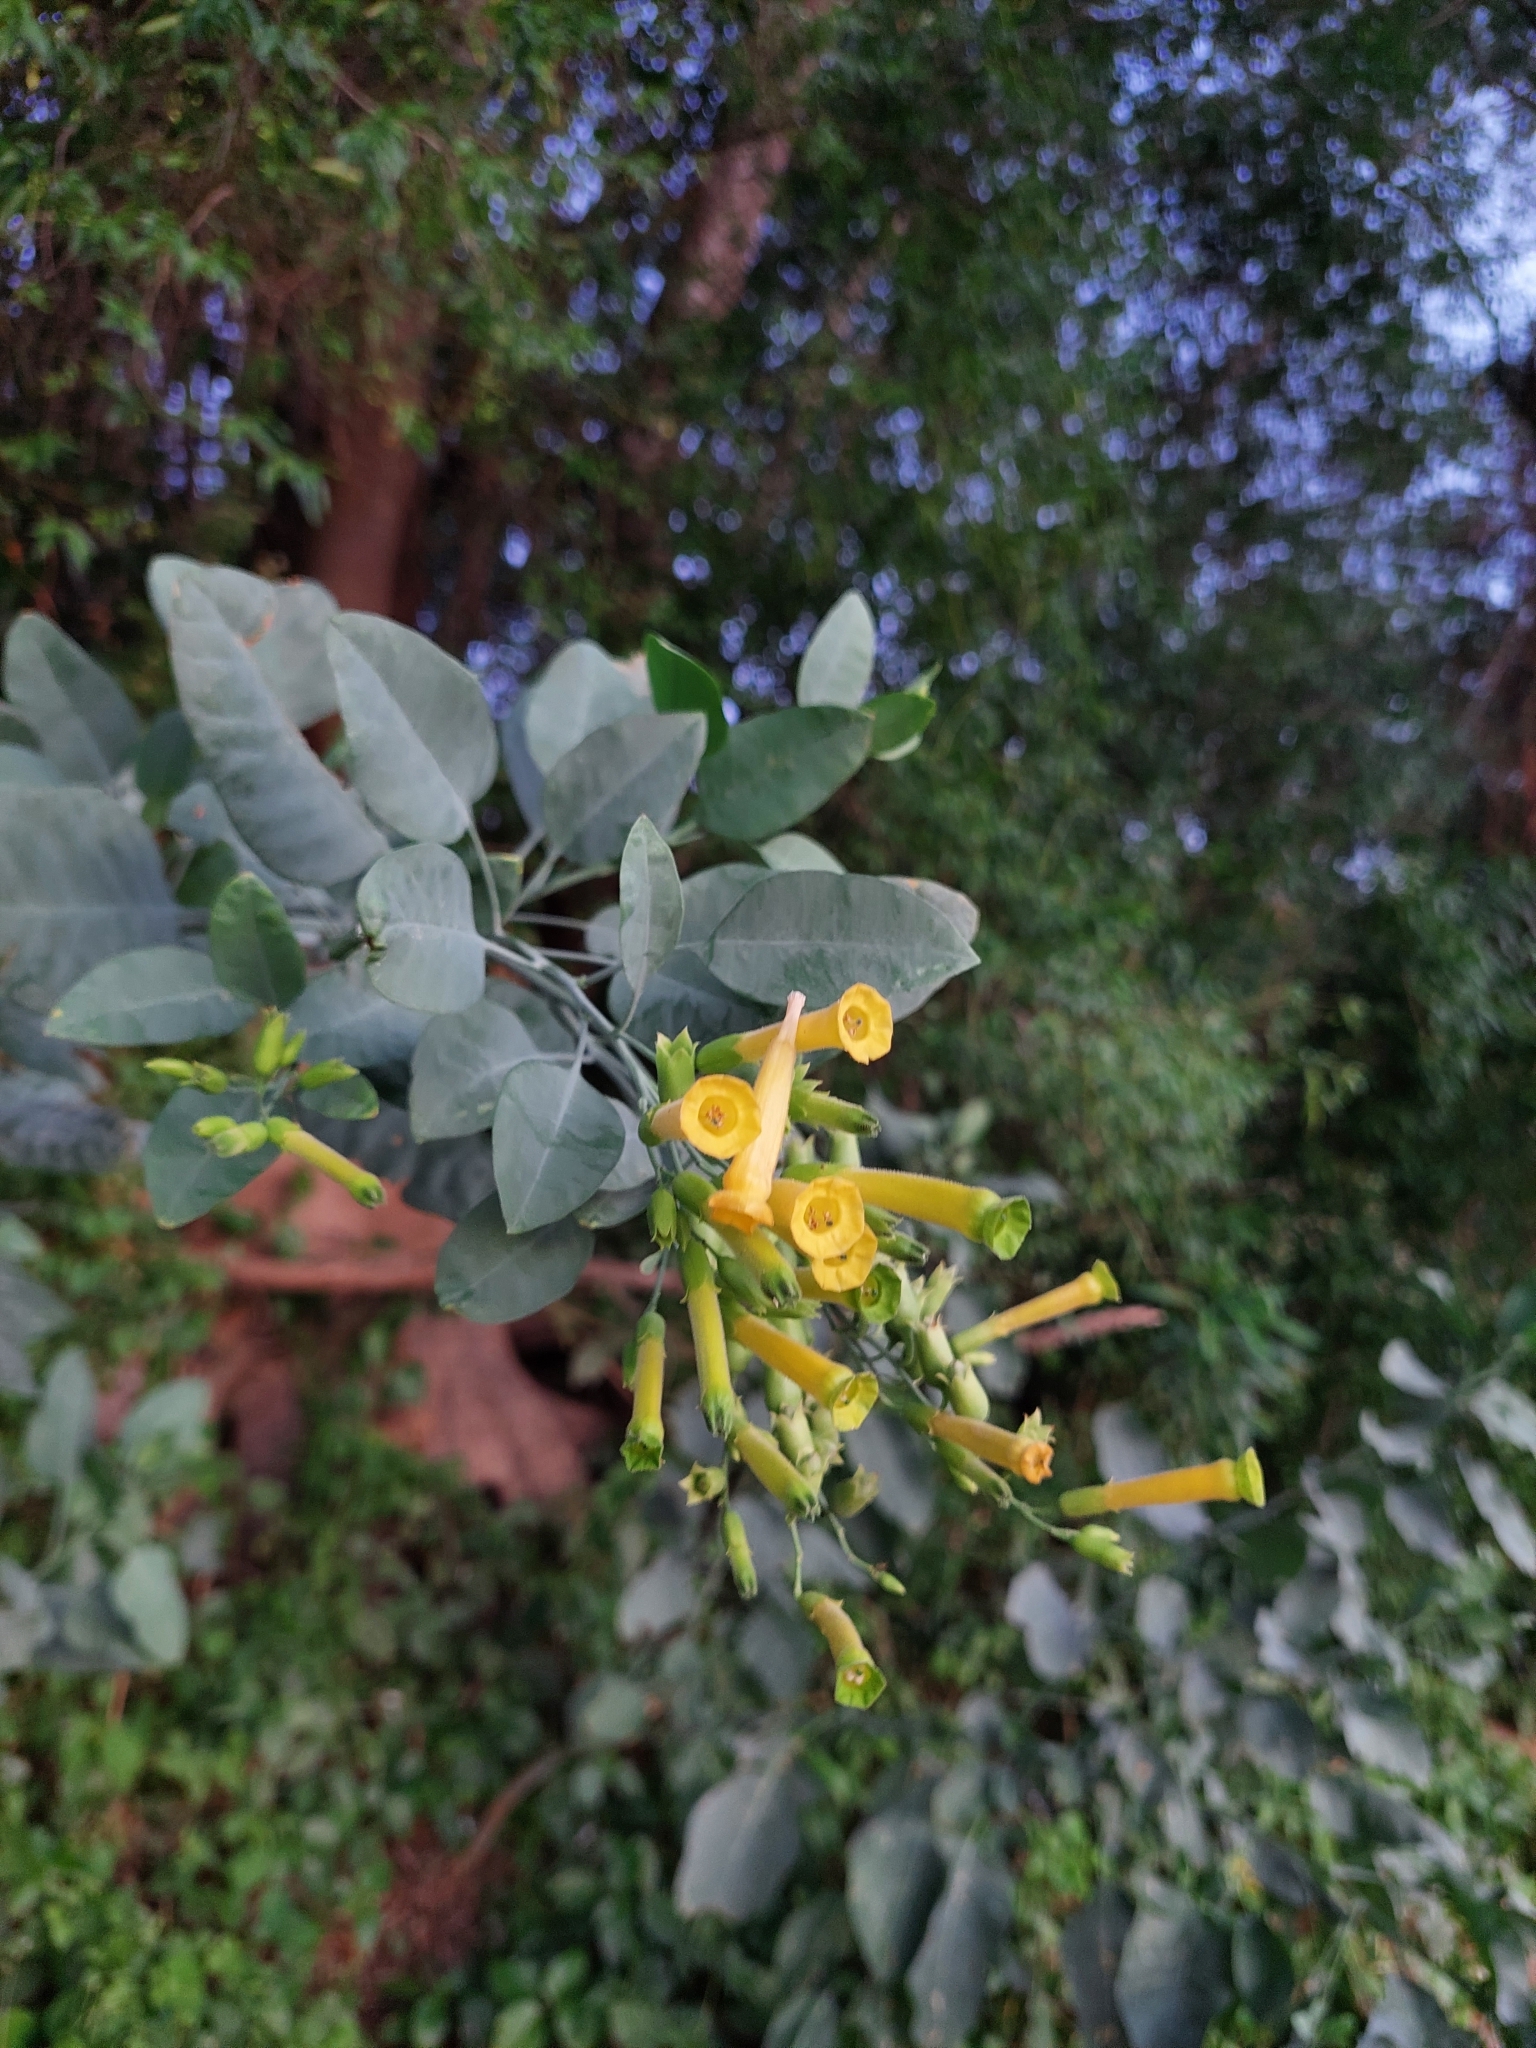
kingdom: Plantae
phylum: Tracheophyta
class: Magnoliopsida
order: Solanales
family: Solanaceae
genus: Nicotiana
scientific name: Nicotiana glauca
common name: Tree tobacco
